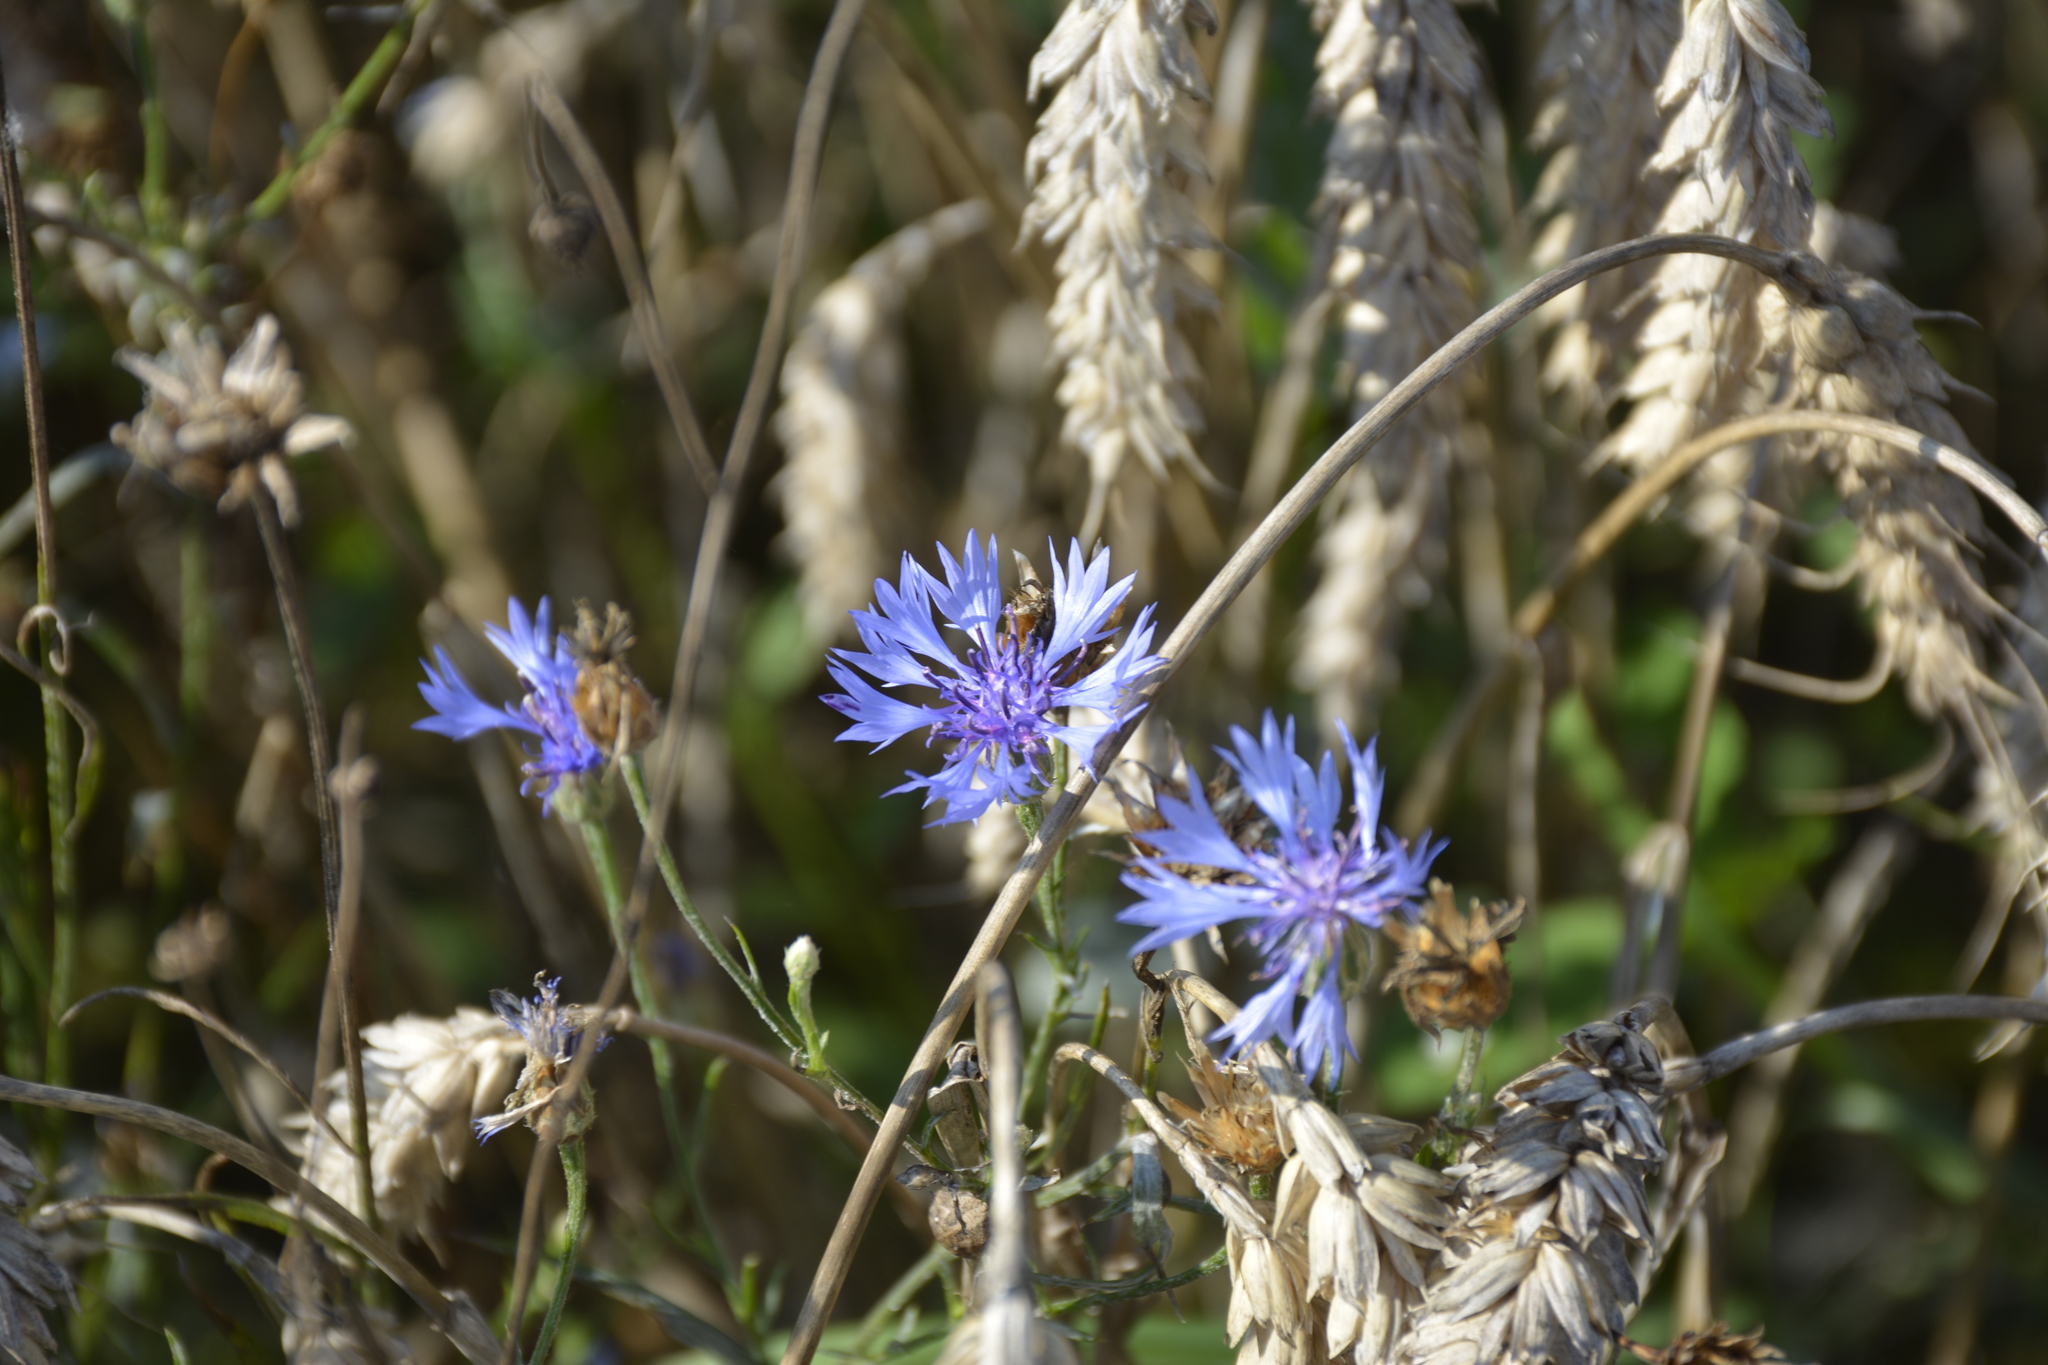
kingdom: Plantae
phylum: Tracheophyta
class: Magnoliopsida
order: Asterales
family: Asteraceae
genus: Centaurea
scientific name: Centaurea cyanus
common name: Cornflower
